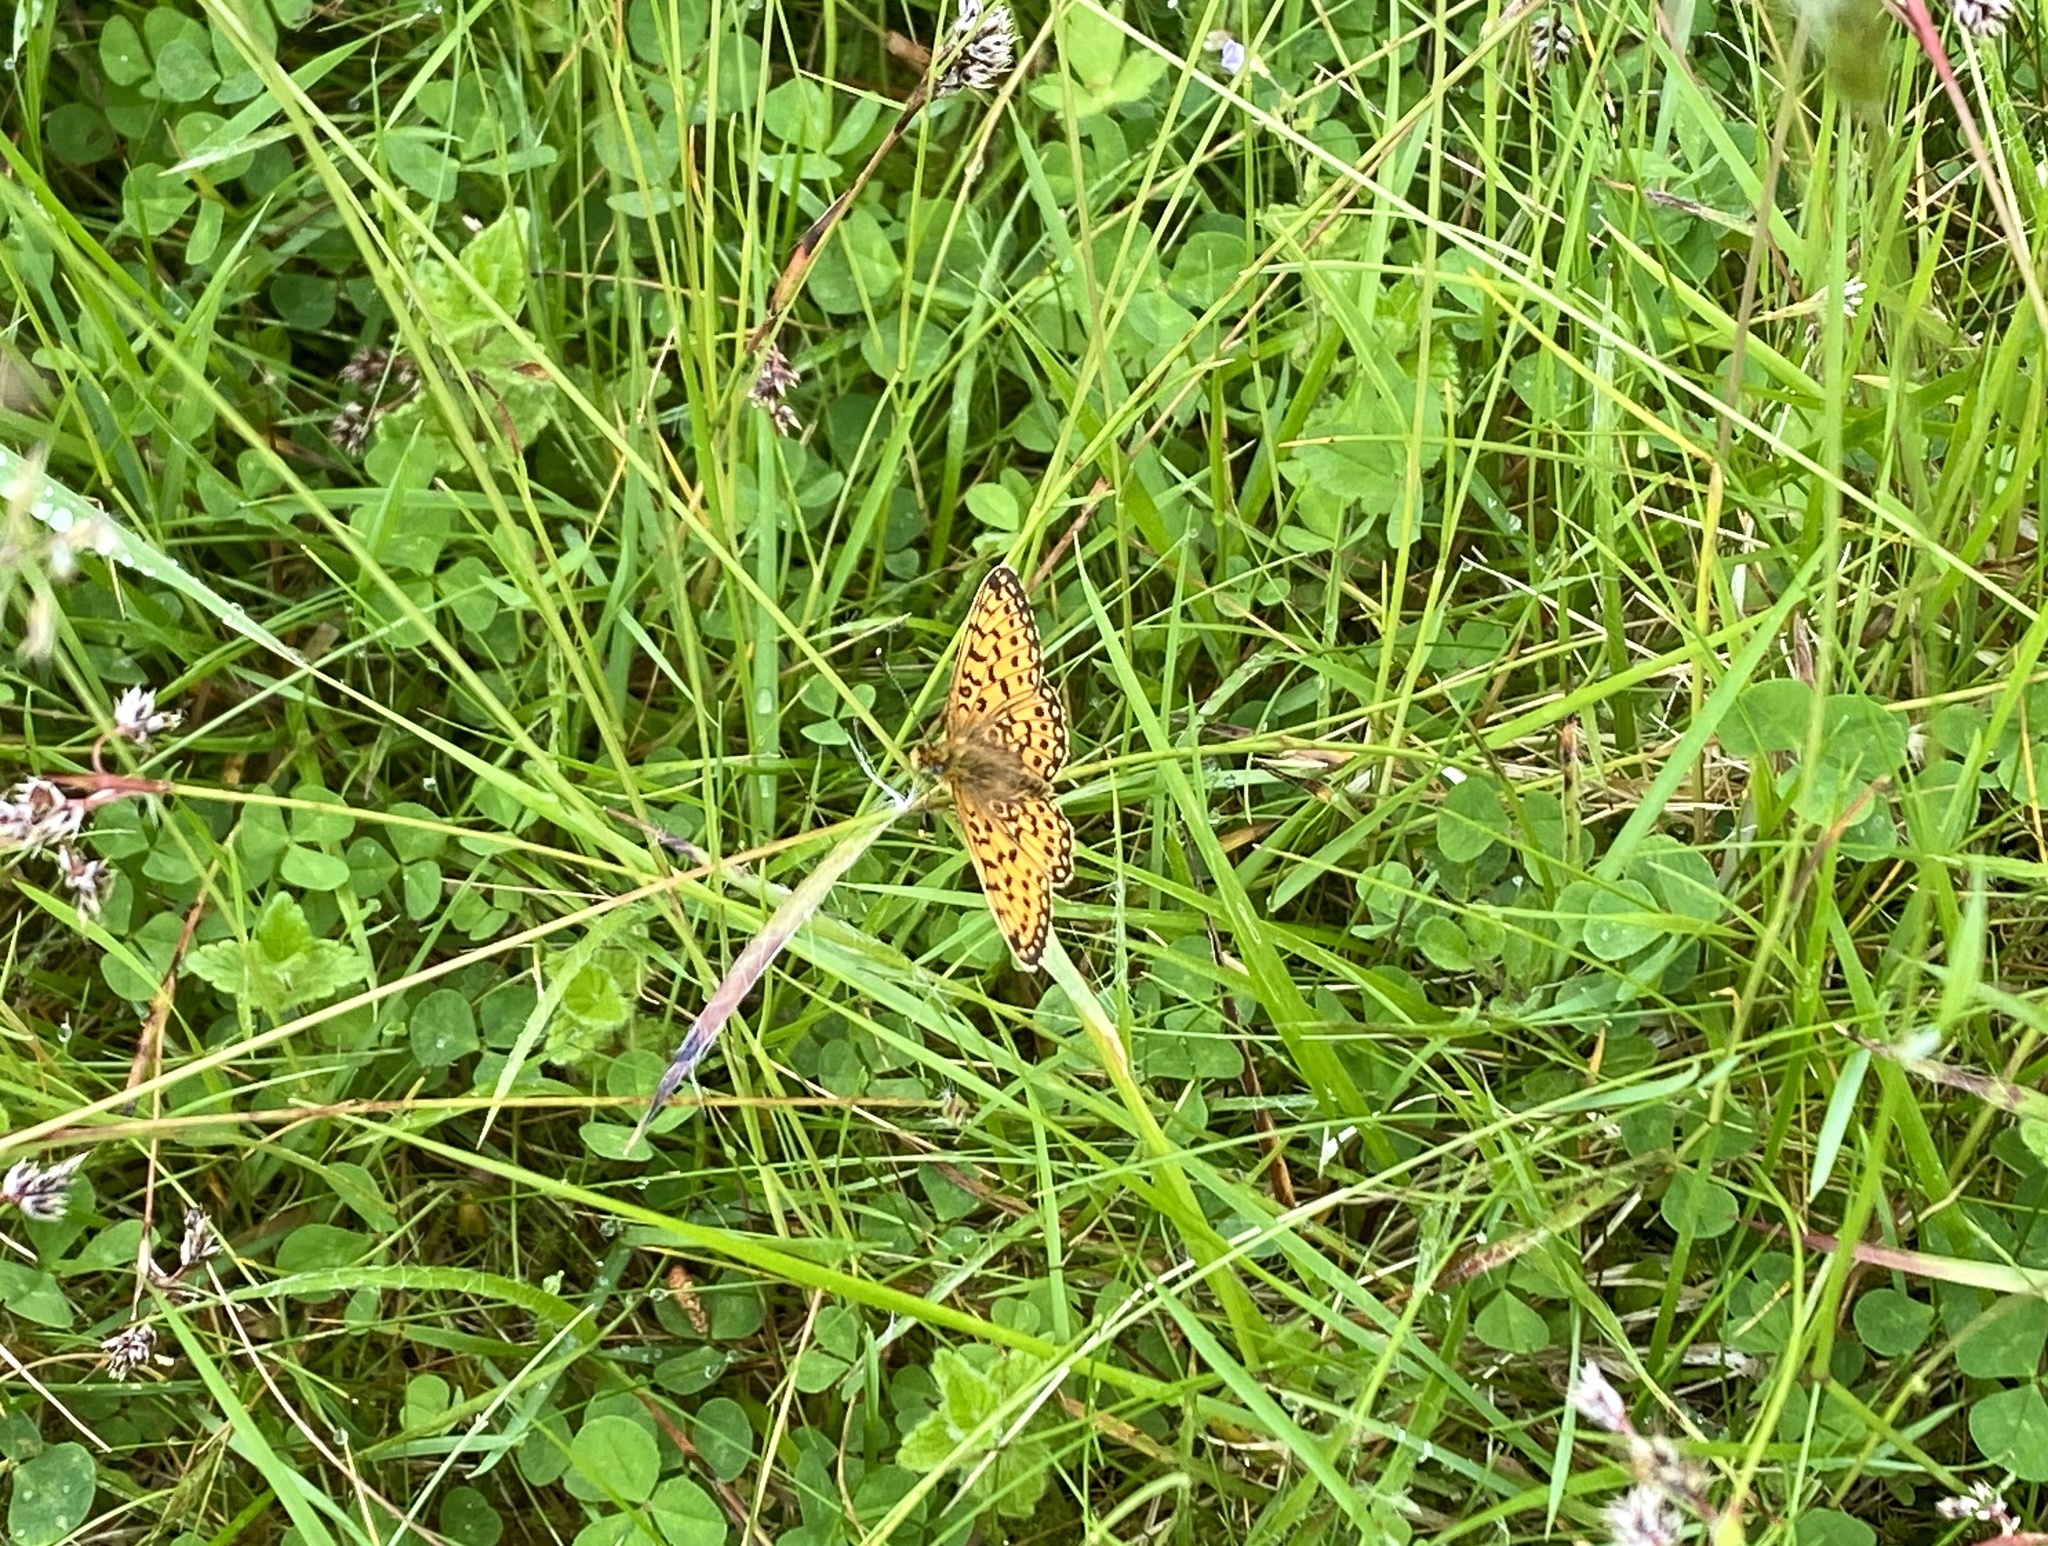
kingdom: Animalia
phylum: Arthropoda
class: Insecta
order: Lepidoptera
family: Nymphalidae
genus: Boloria
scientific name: Boloria selene
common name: Small pearl-bordered fritillary
